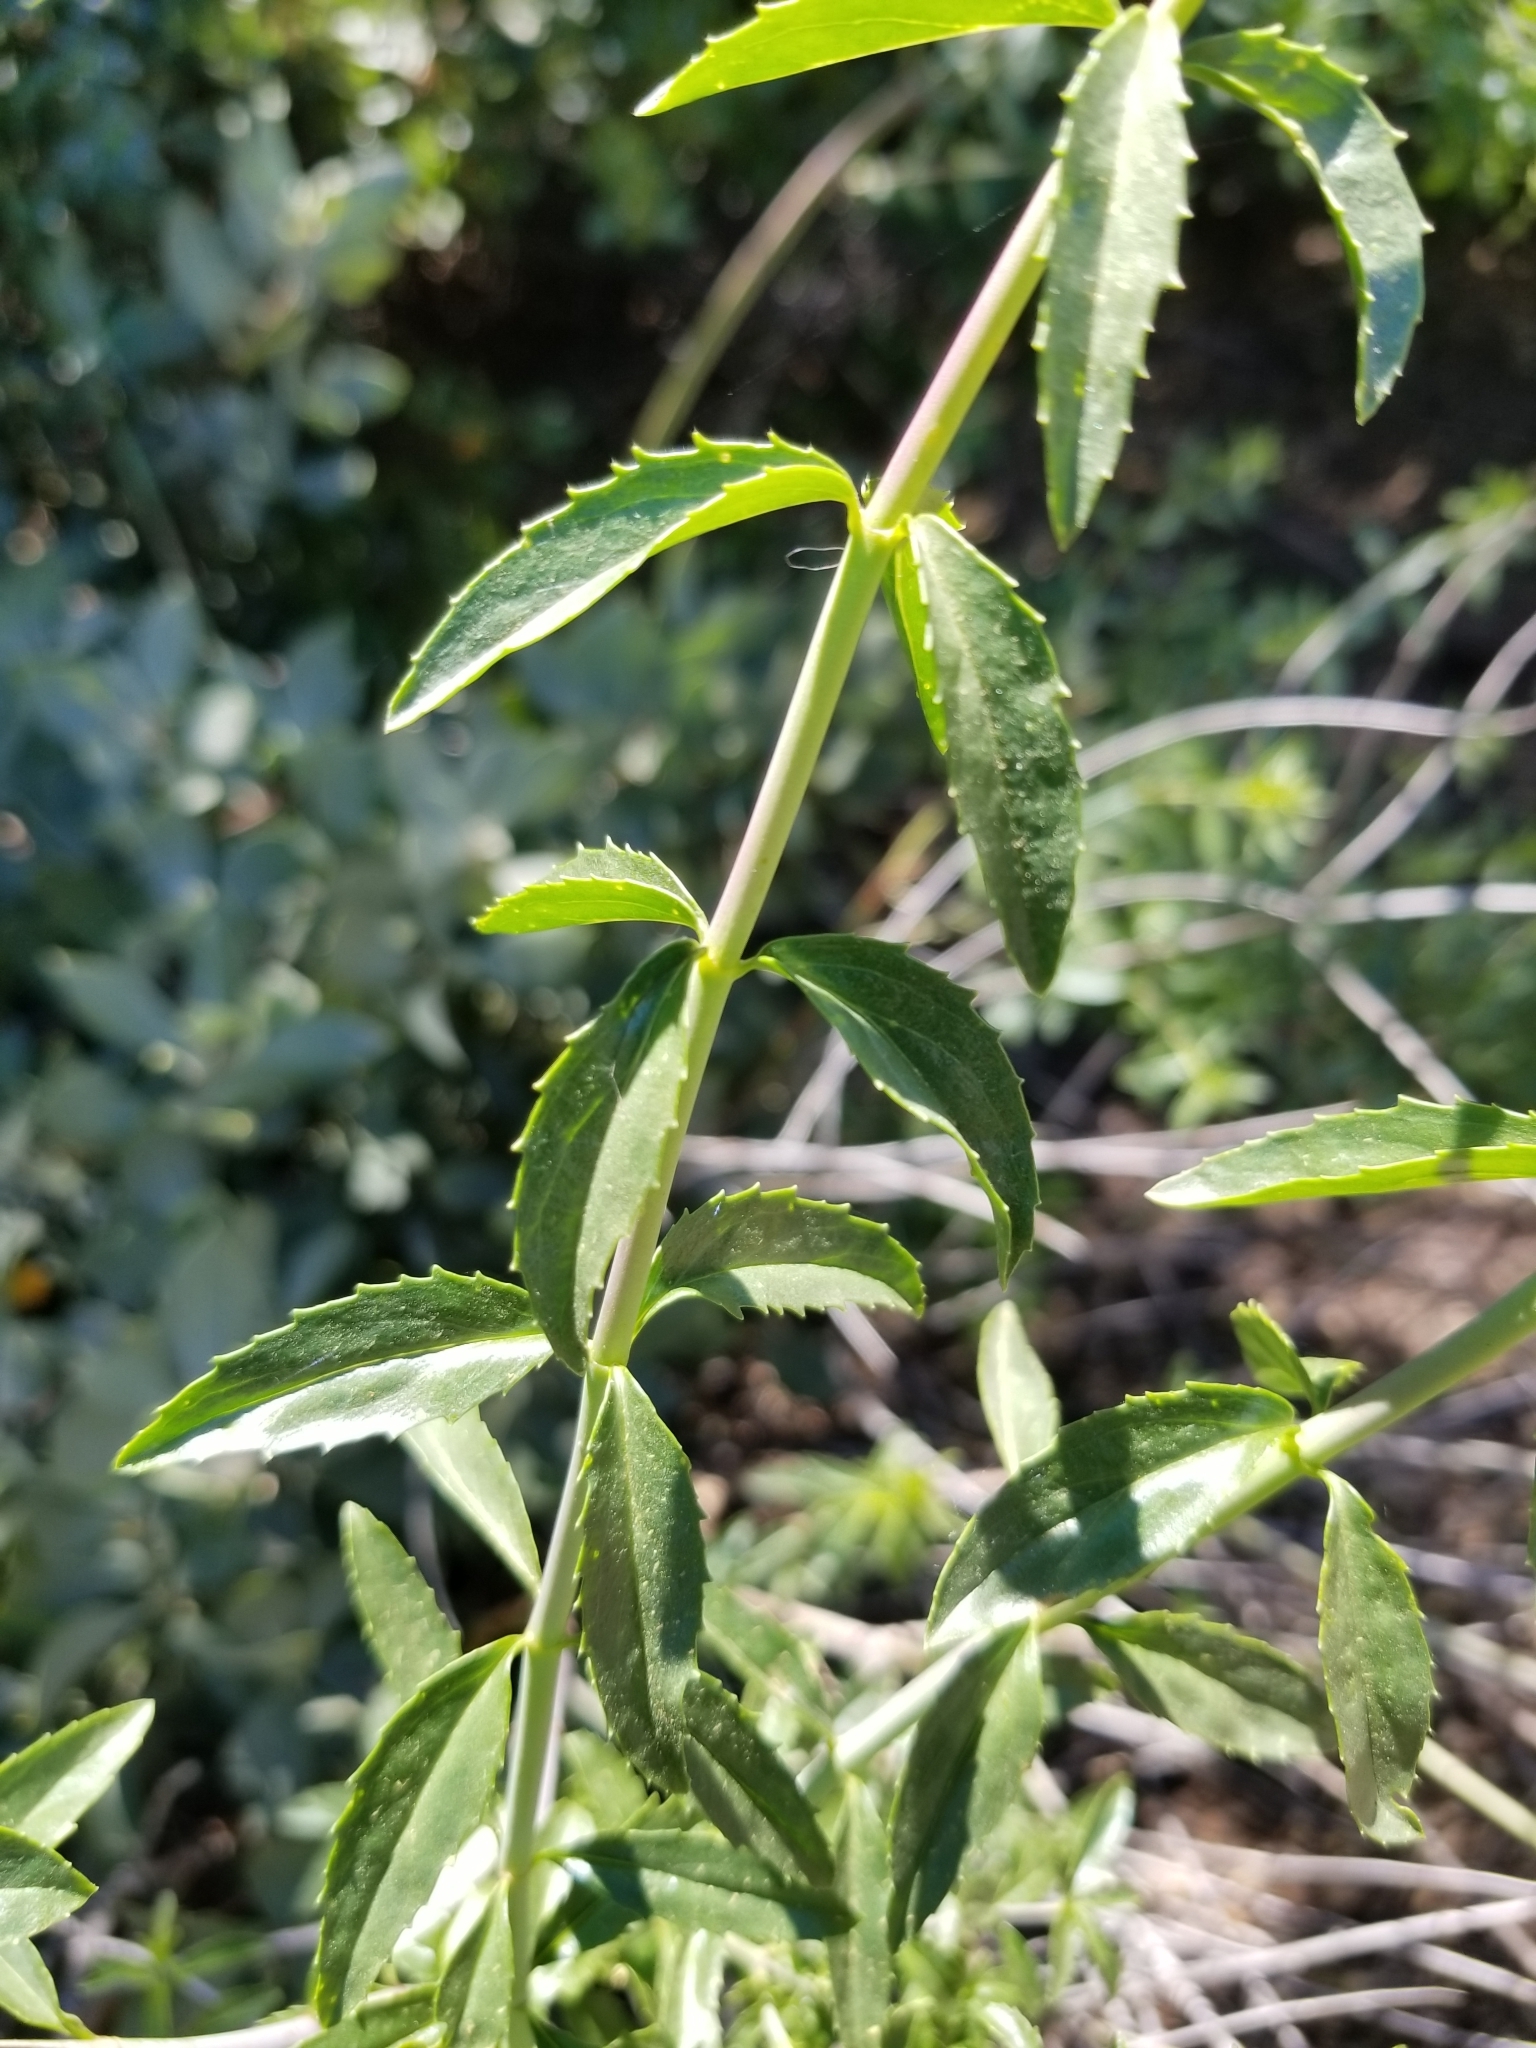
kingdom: Plantae
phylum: Tracheophyta
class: Magnoliopsida
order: Lamiales
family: Plantaginaceae
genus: Keckiella
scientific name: Keckiella ternata
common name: Scarlet keckiella
